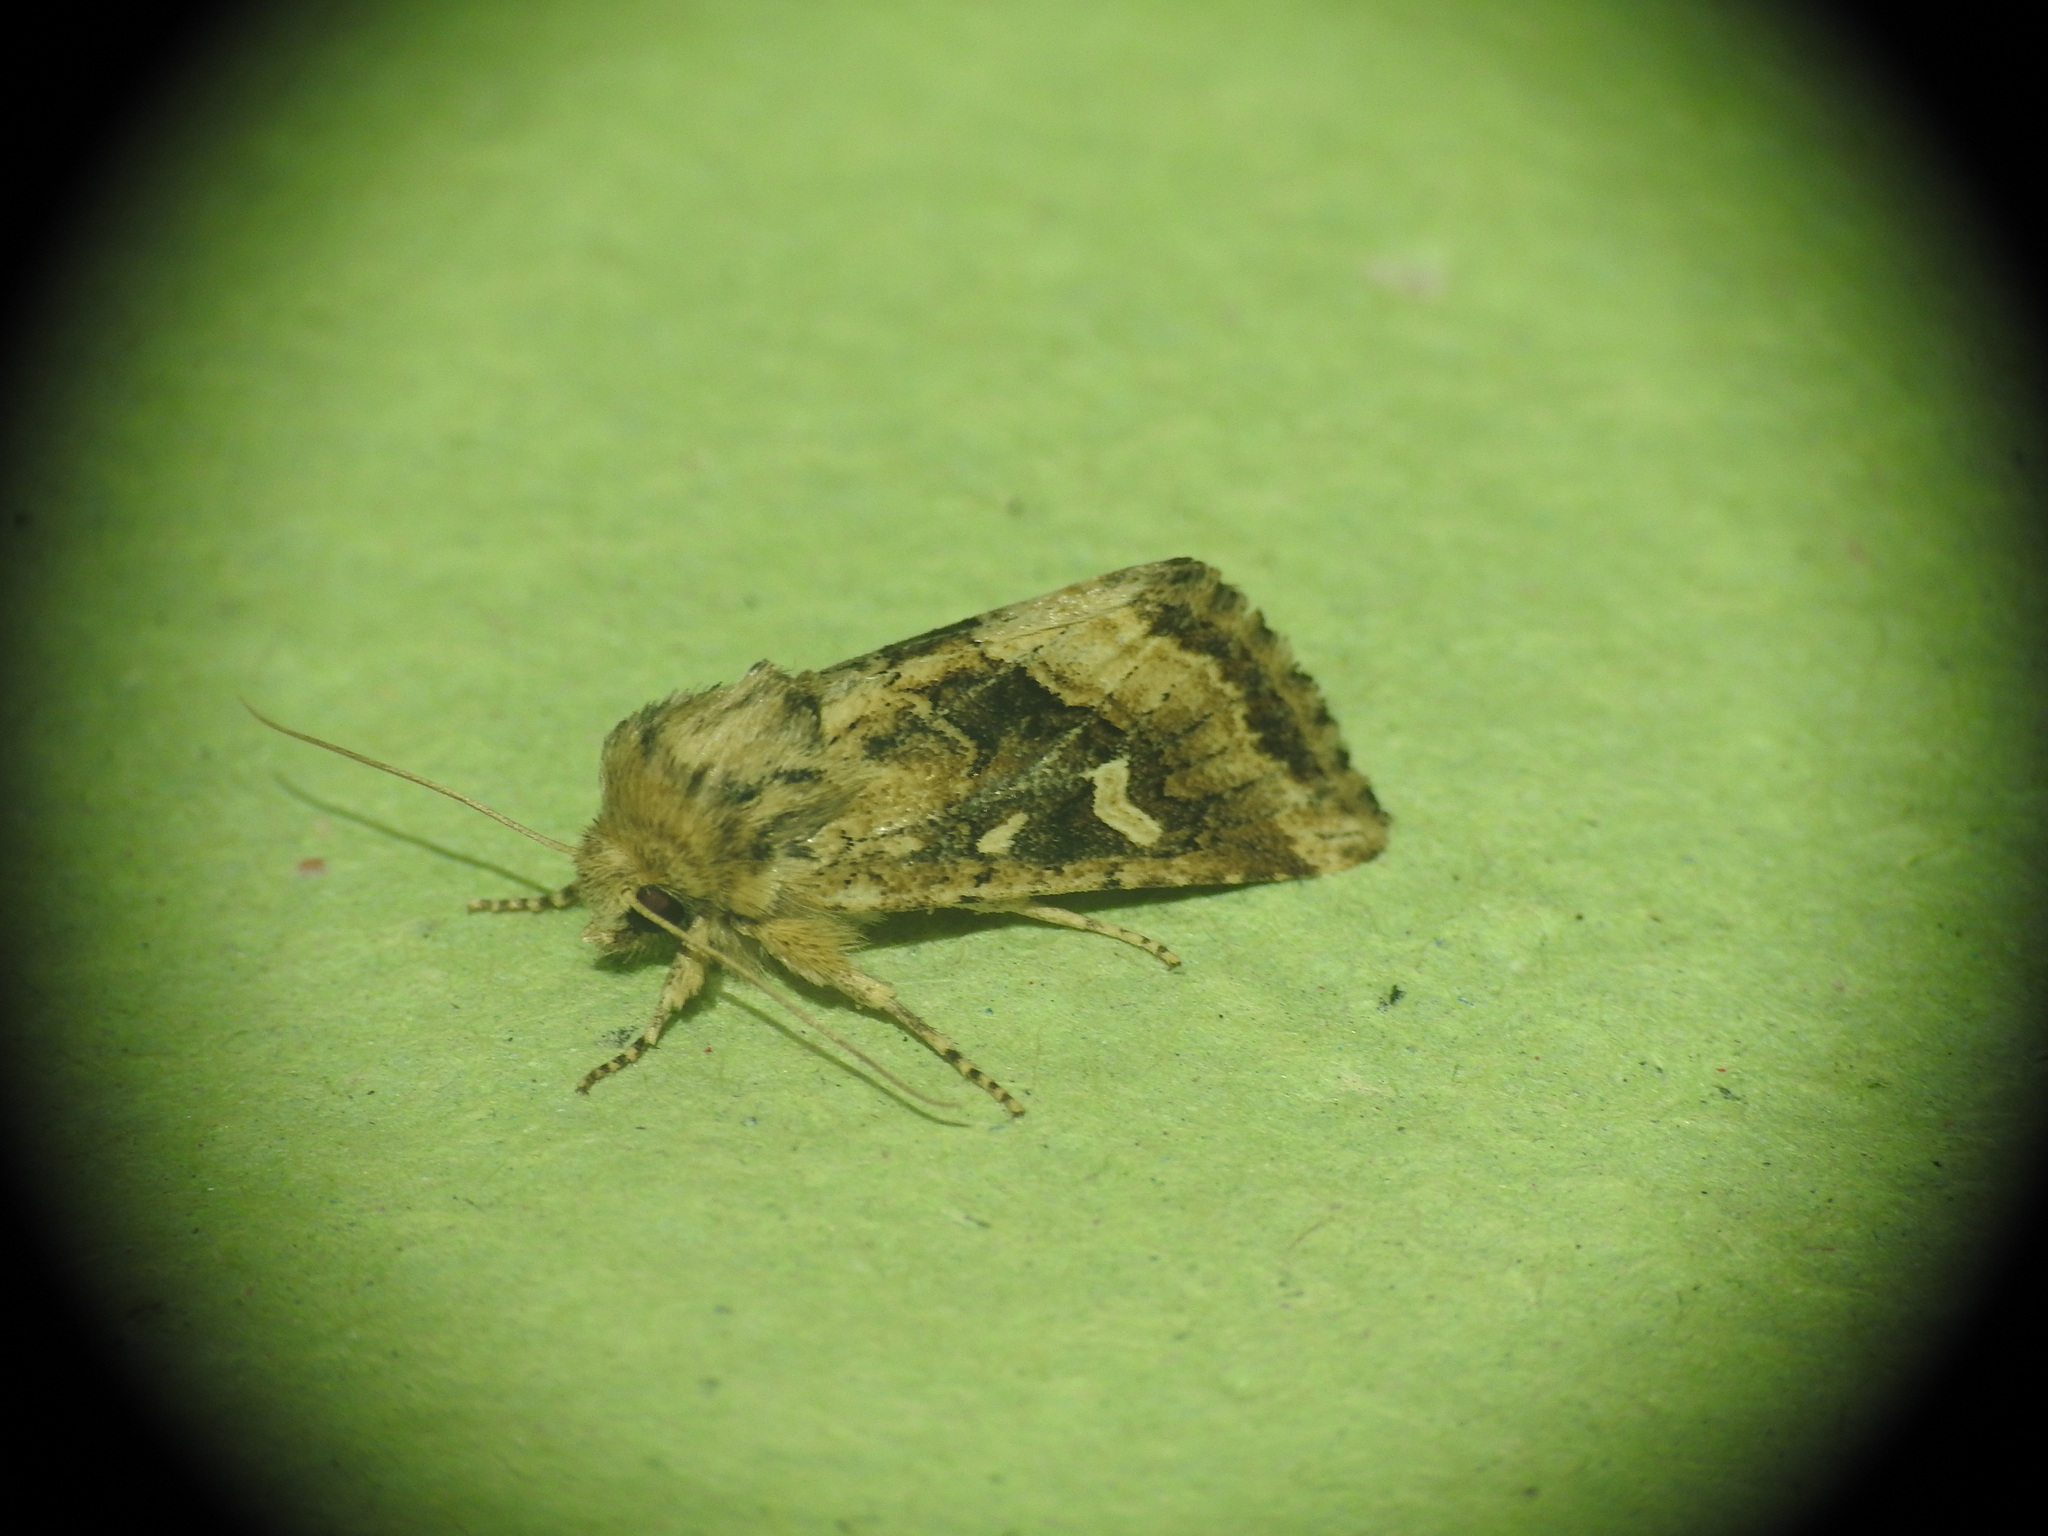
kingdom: Animalia
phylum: Arthropoda
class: Insecta
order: Lepidoptera
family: Noctuidae
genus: Luperina
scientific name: Luperina dumerilii
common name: Dumeril's rustic
